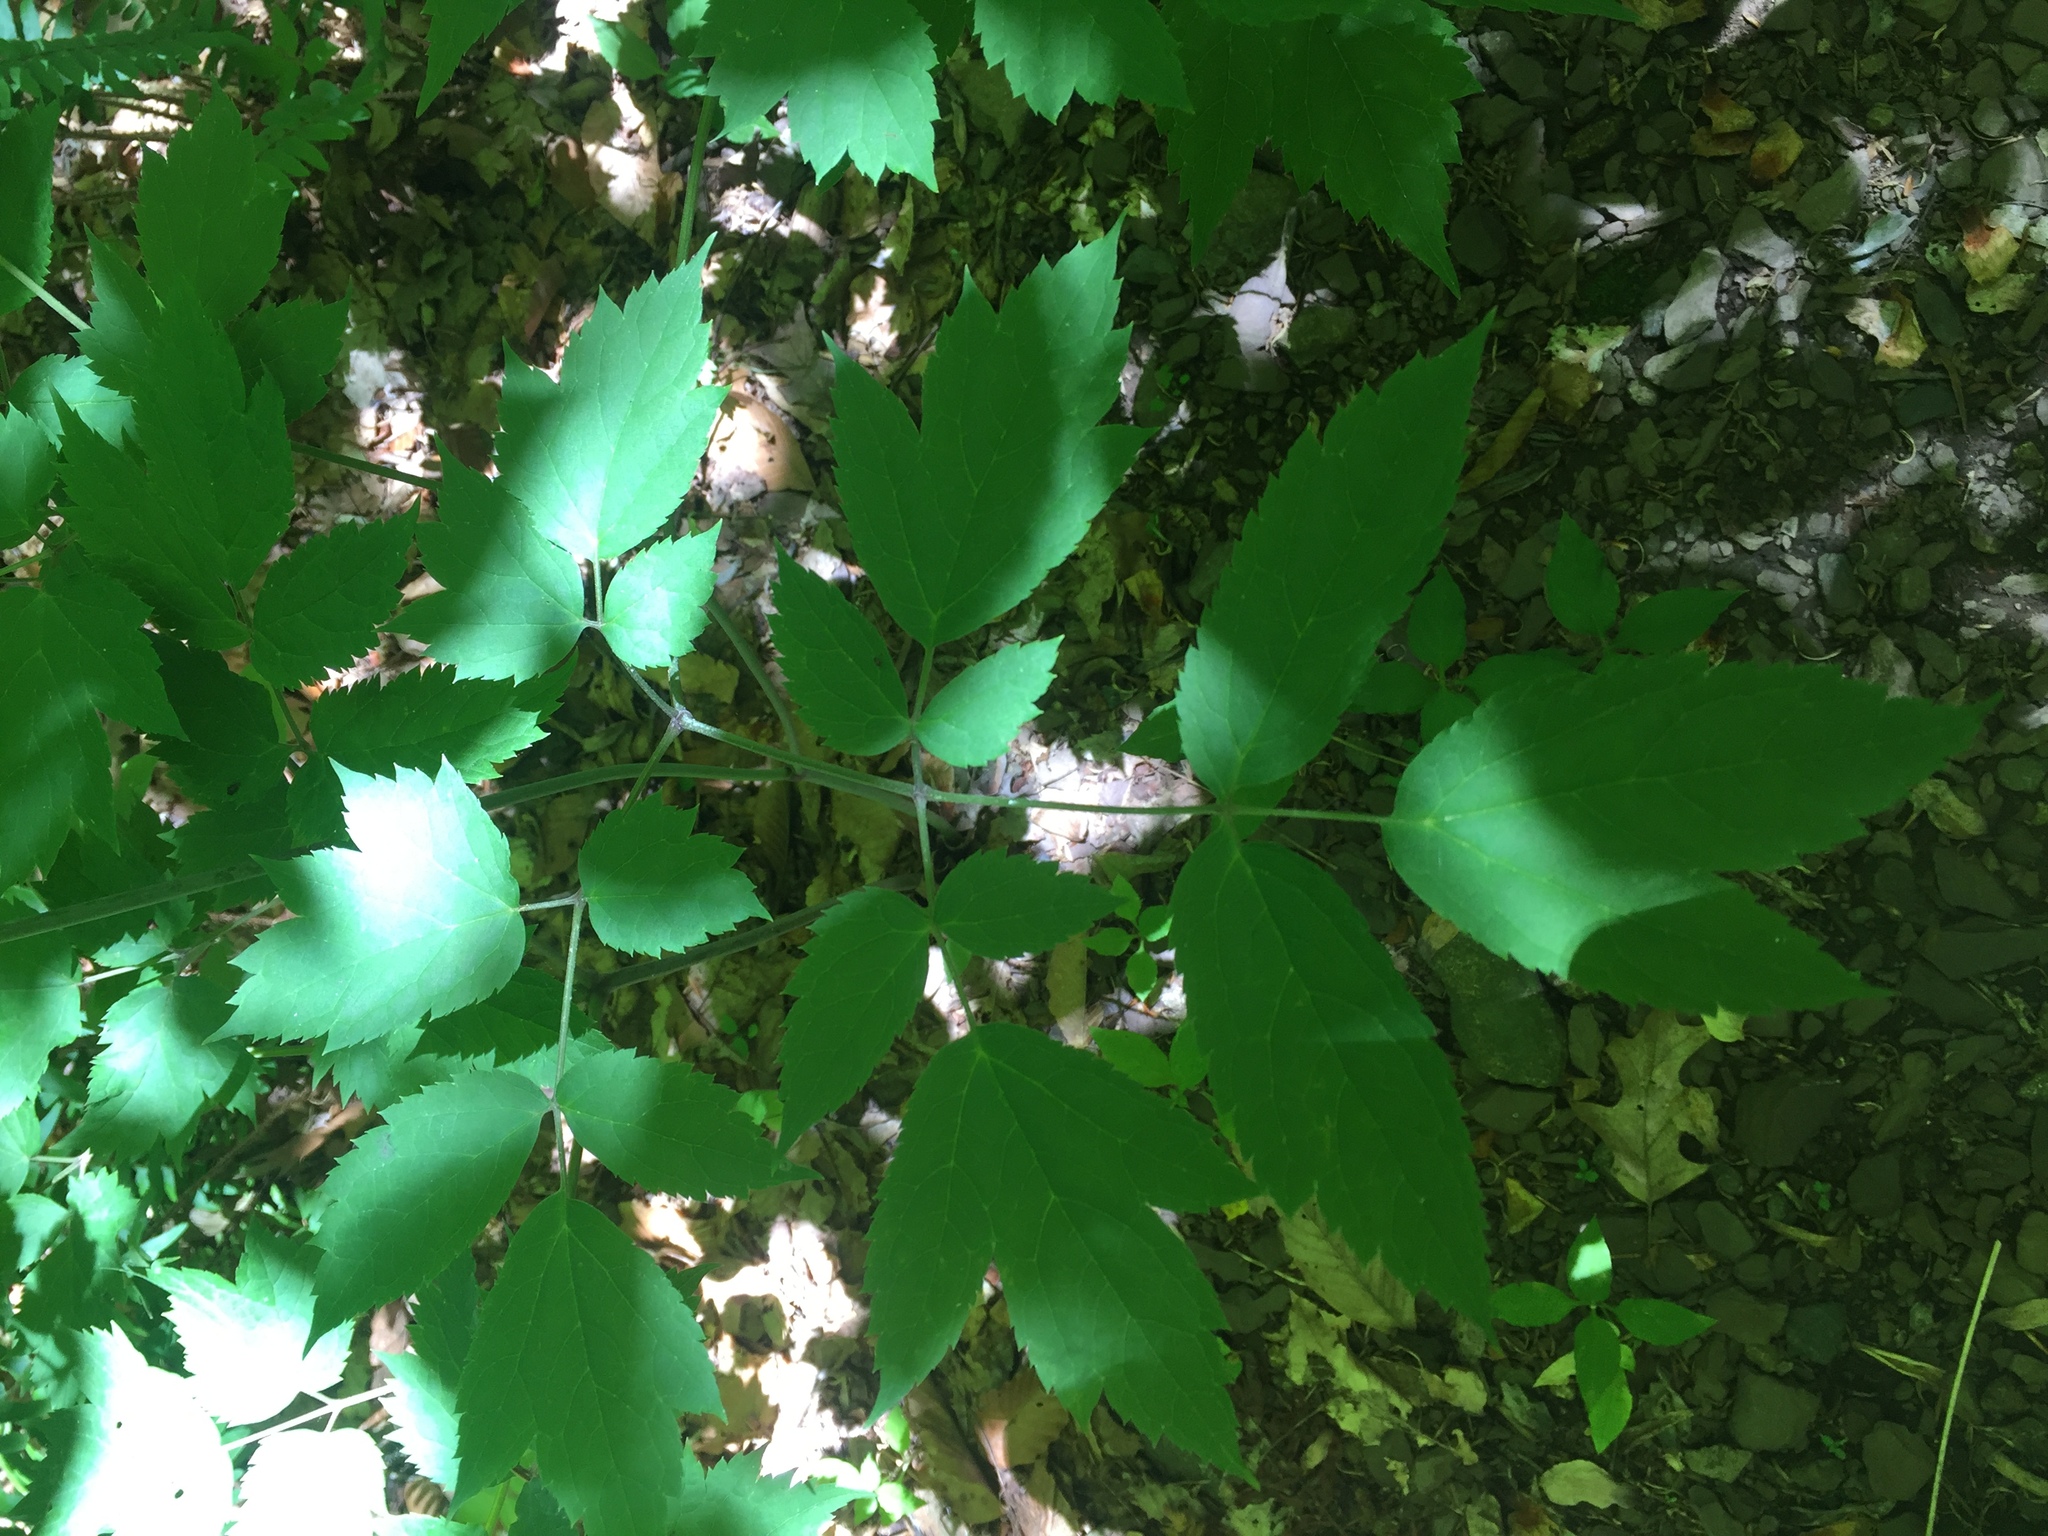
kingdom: Plantae
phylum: Tracheophyta
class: Magnoliopsida
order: Ranunculales
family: Ranunculaceae
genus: Actaea
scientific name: Actaea racemosa
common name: Black cohosh
